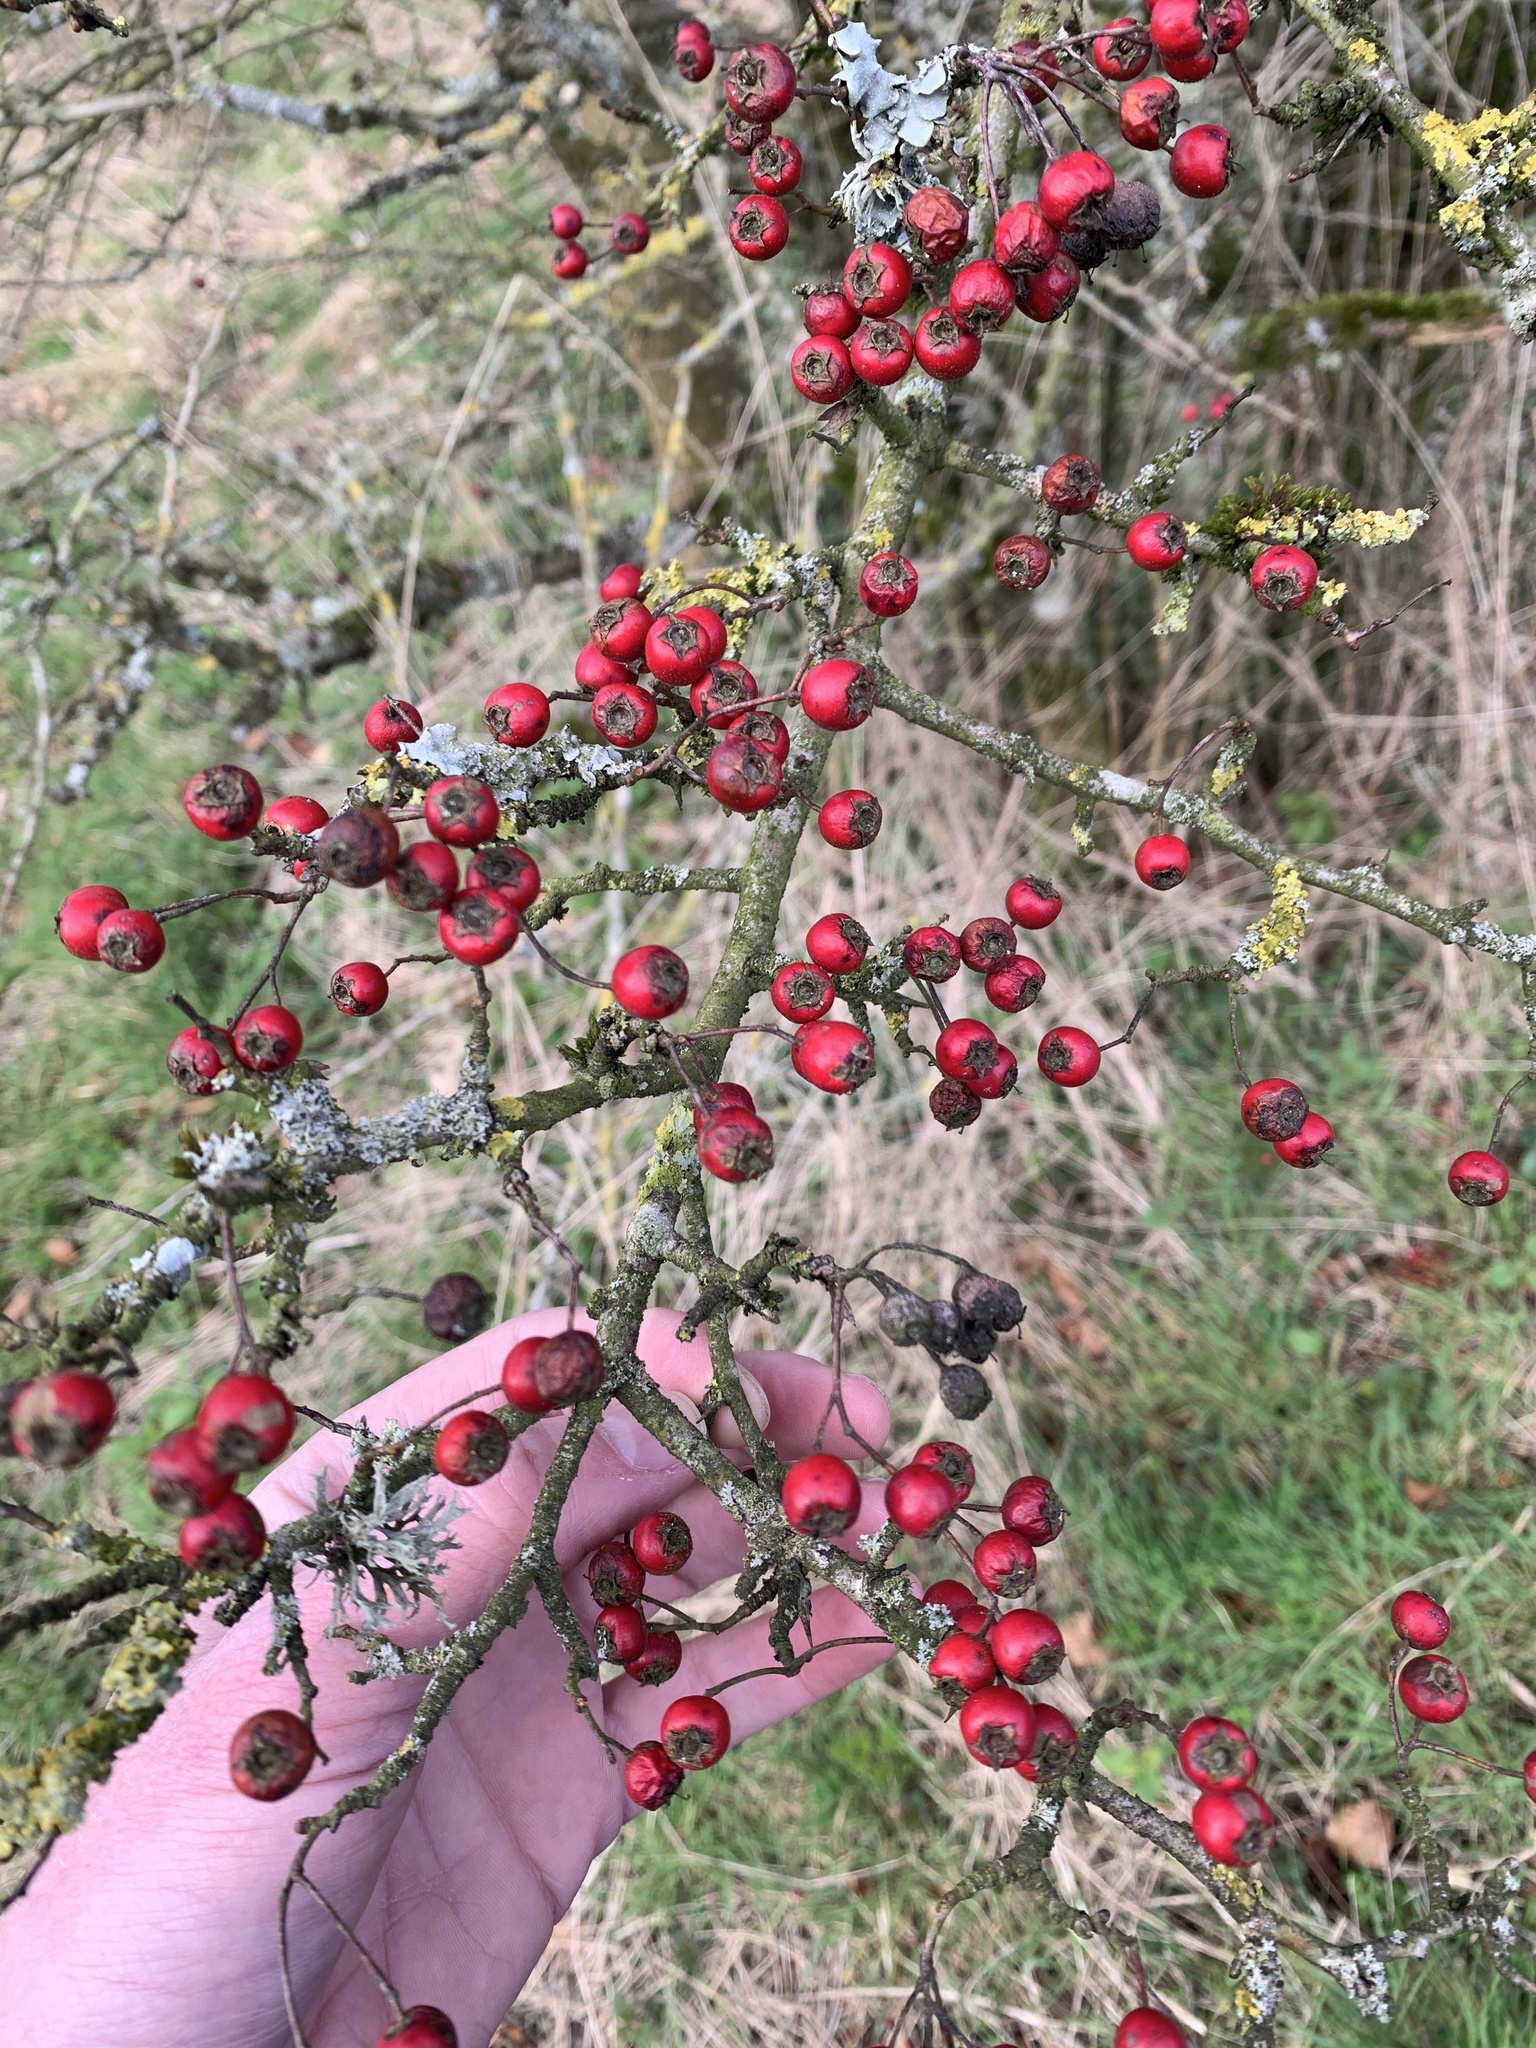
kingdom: Plantae
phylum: Tracheophyta
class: Magnoliopsida
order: Rosales
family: Rosaceae
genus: Crataegus
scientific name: Crataegus monogyna
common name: Hawthorn
